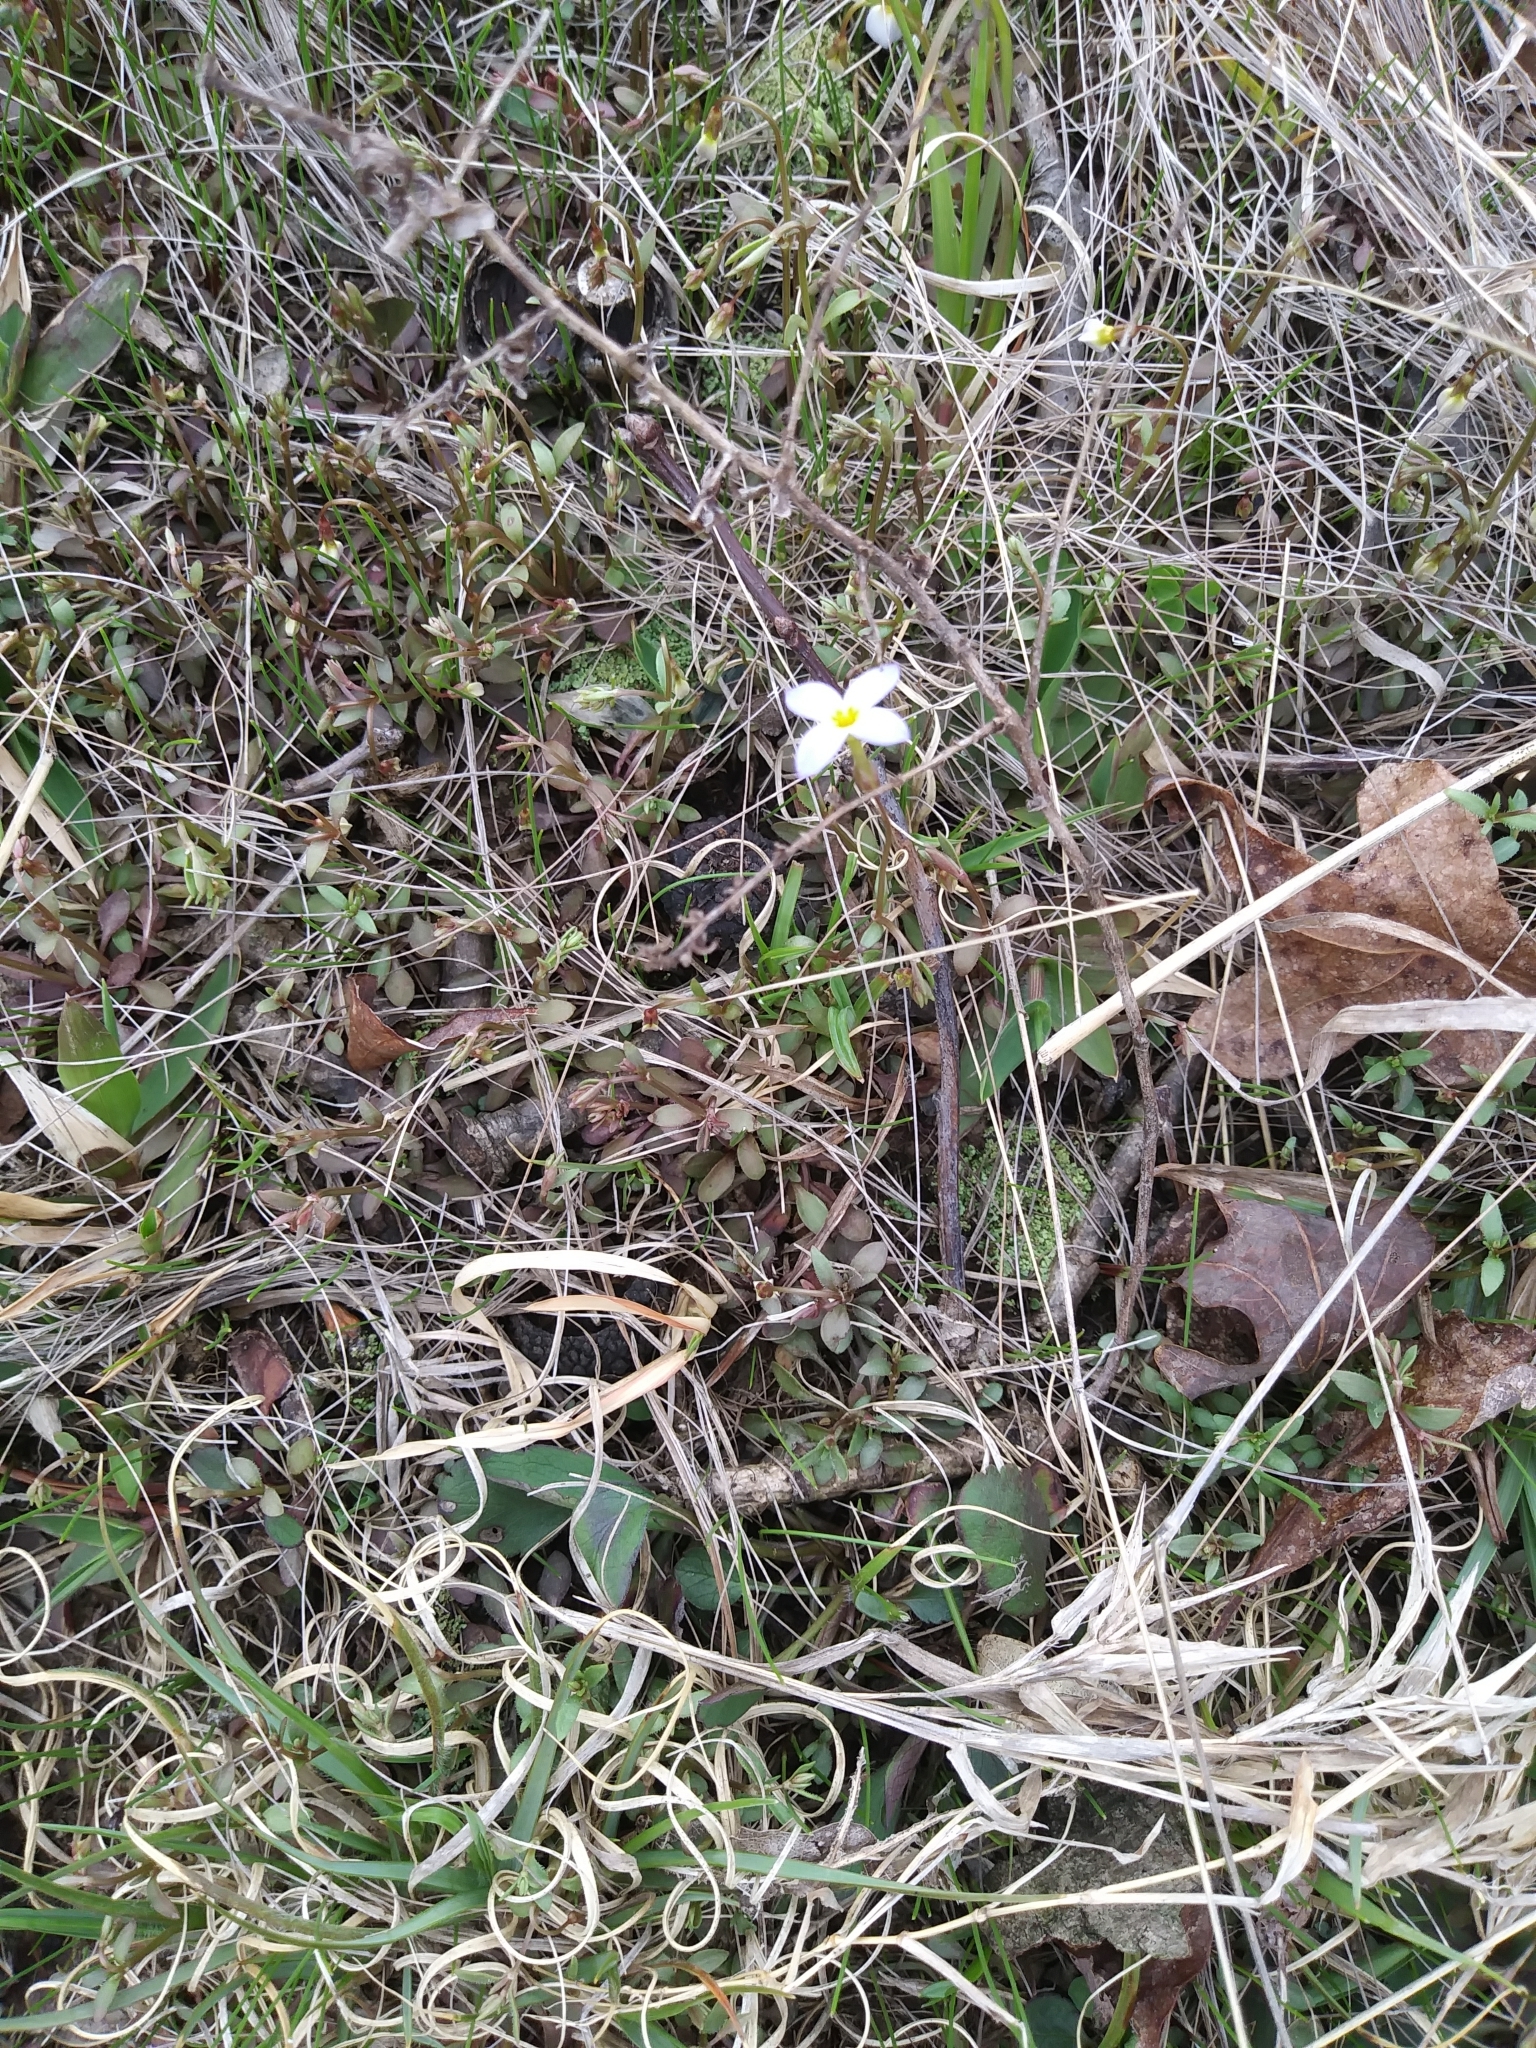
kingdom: Plantae
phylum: Tracheophyta
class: Magnoliopsida
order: Gentianales
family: Rubiaceae
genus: Houstonia
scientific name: Houstonia caerulea
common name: Bluets
